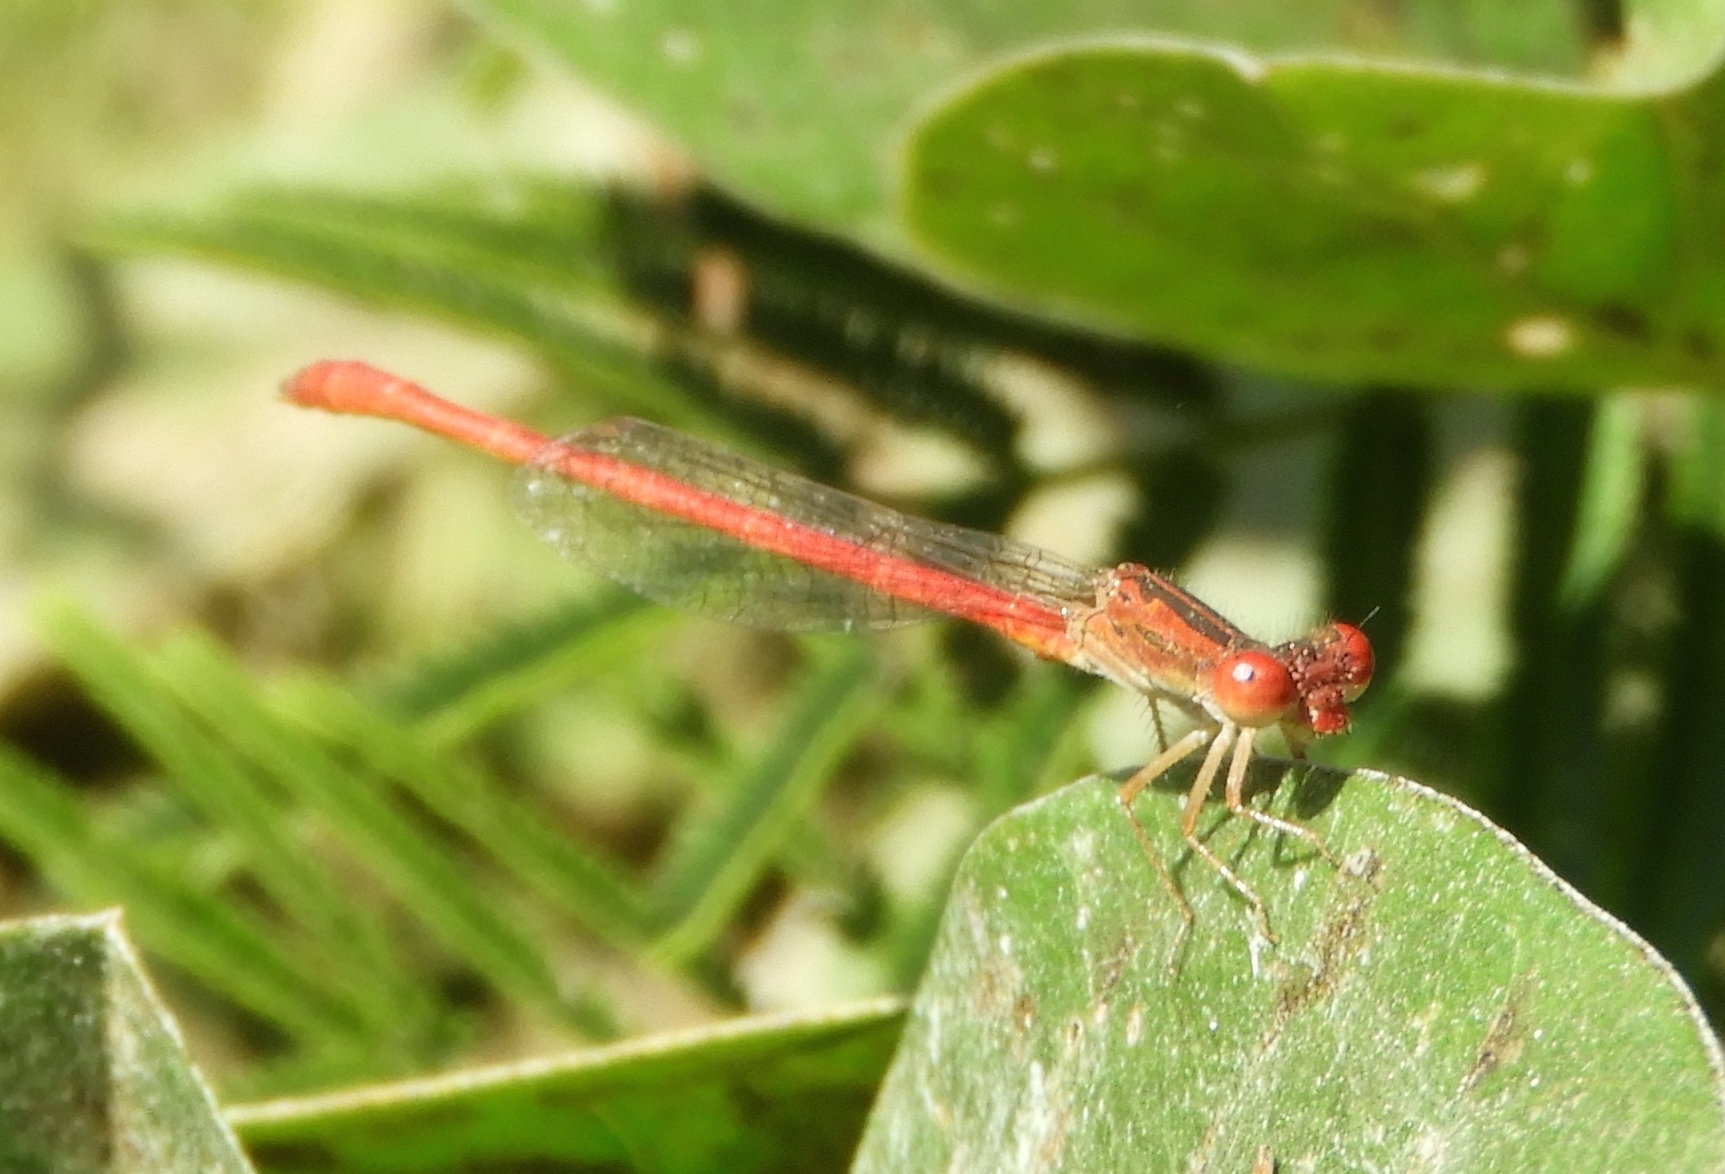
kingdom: Animalia
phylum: Arthropoda
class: Insecta
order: Odonata
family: Coenagrionidae
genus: Telebasis
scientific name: Telebasis salva
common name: Desert firetail
